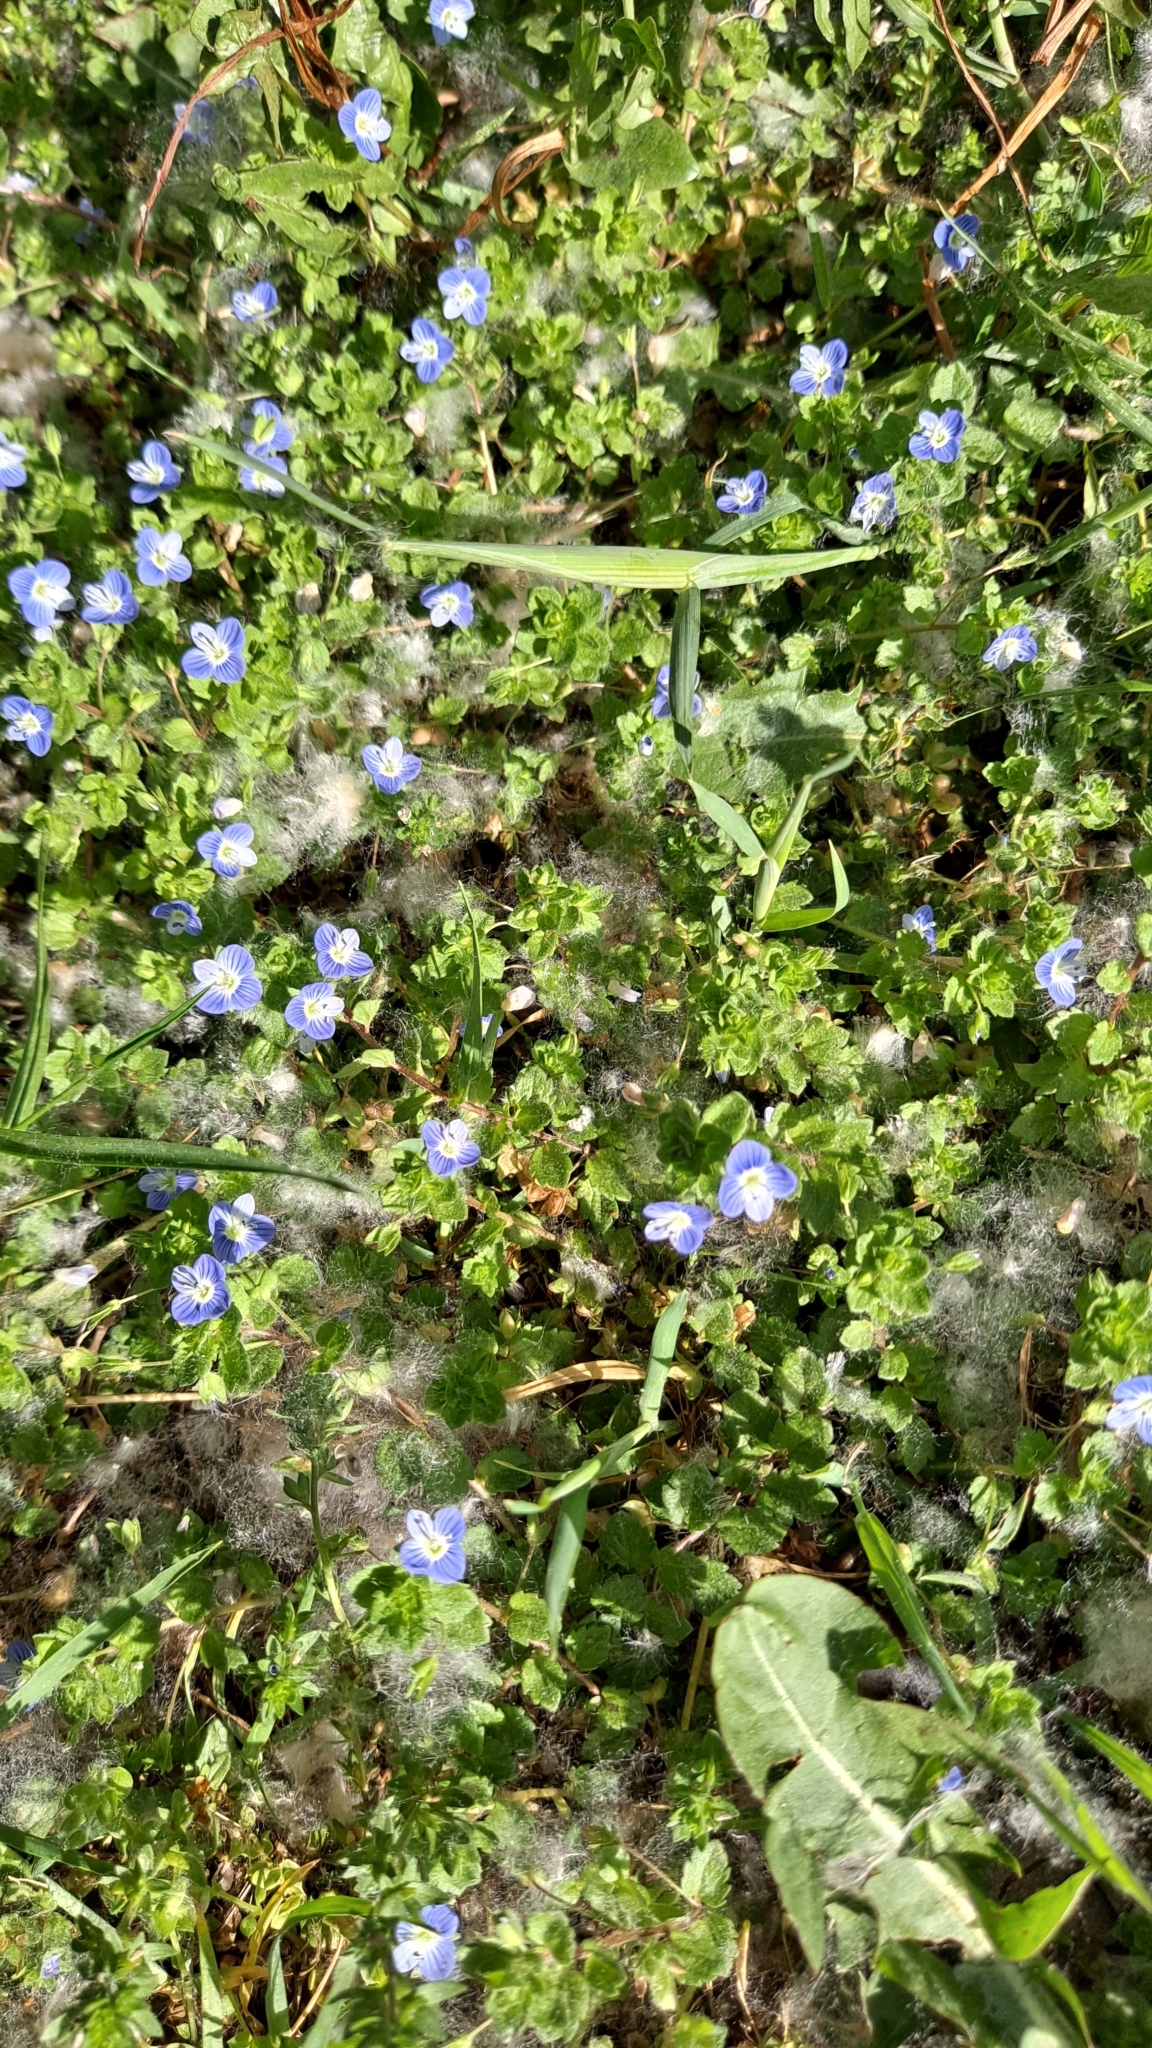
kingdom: Plantae
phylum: Tracheophyta
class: Magnoliopsida
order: Lamiales
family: Plantaginaceae
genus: Veronica
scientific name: Veronica persica
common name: Common field-speedwell
